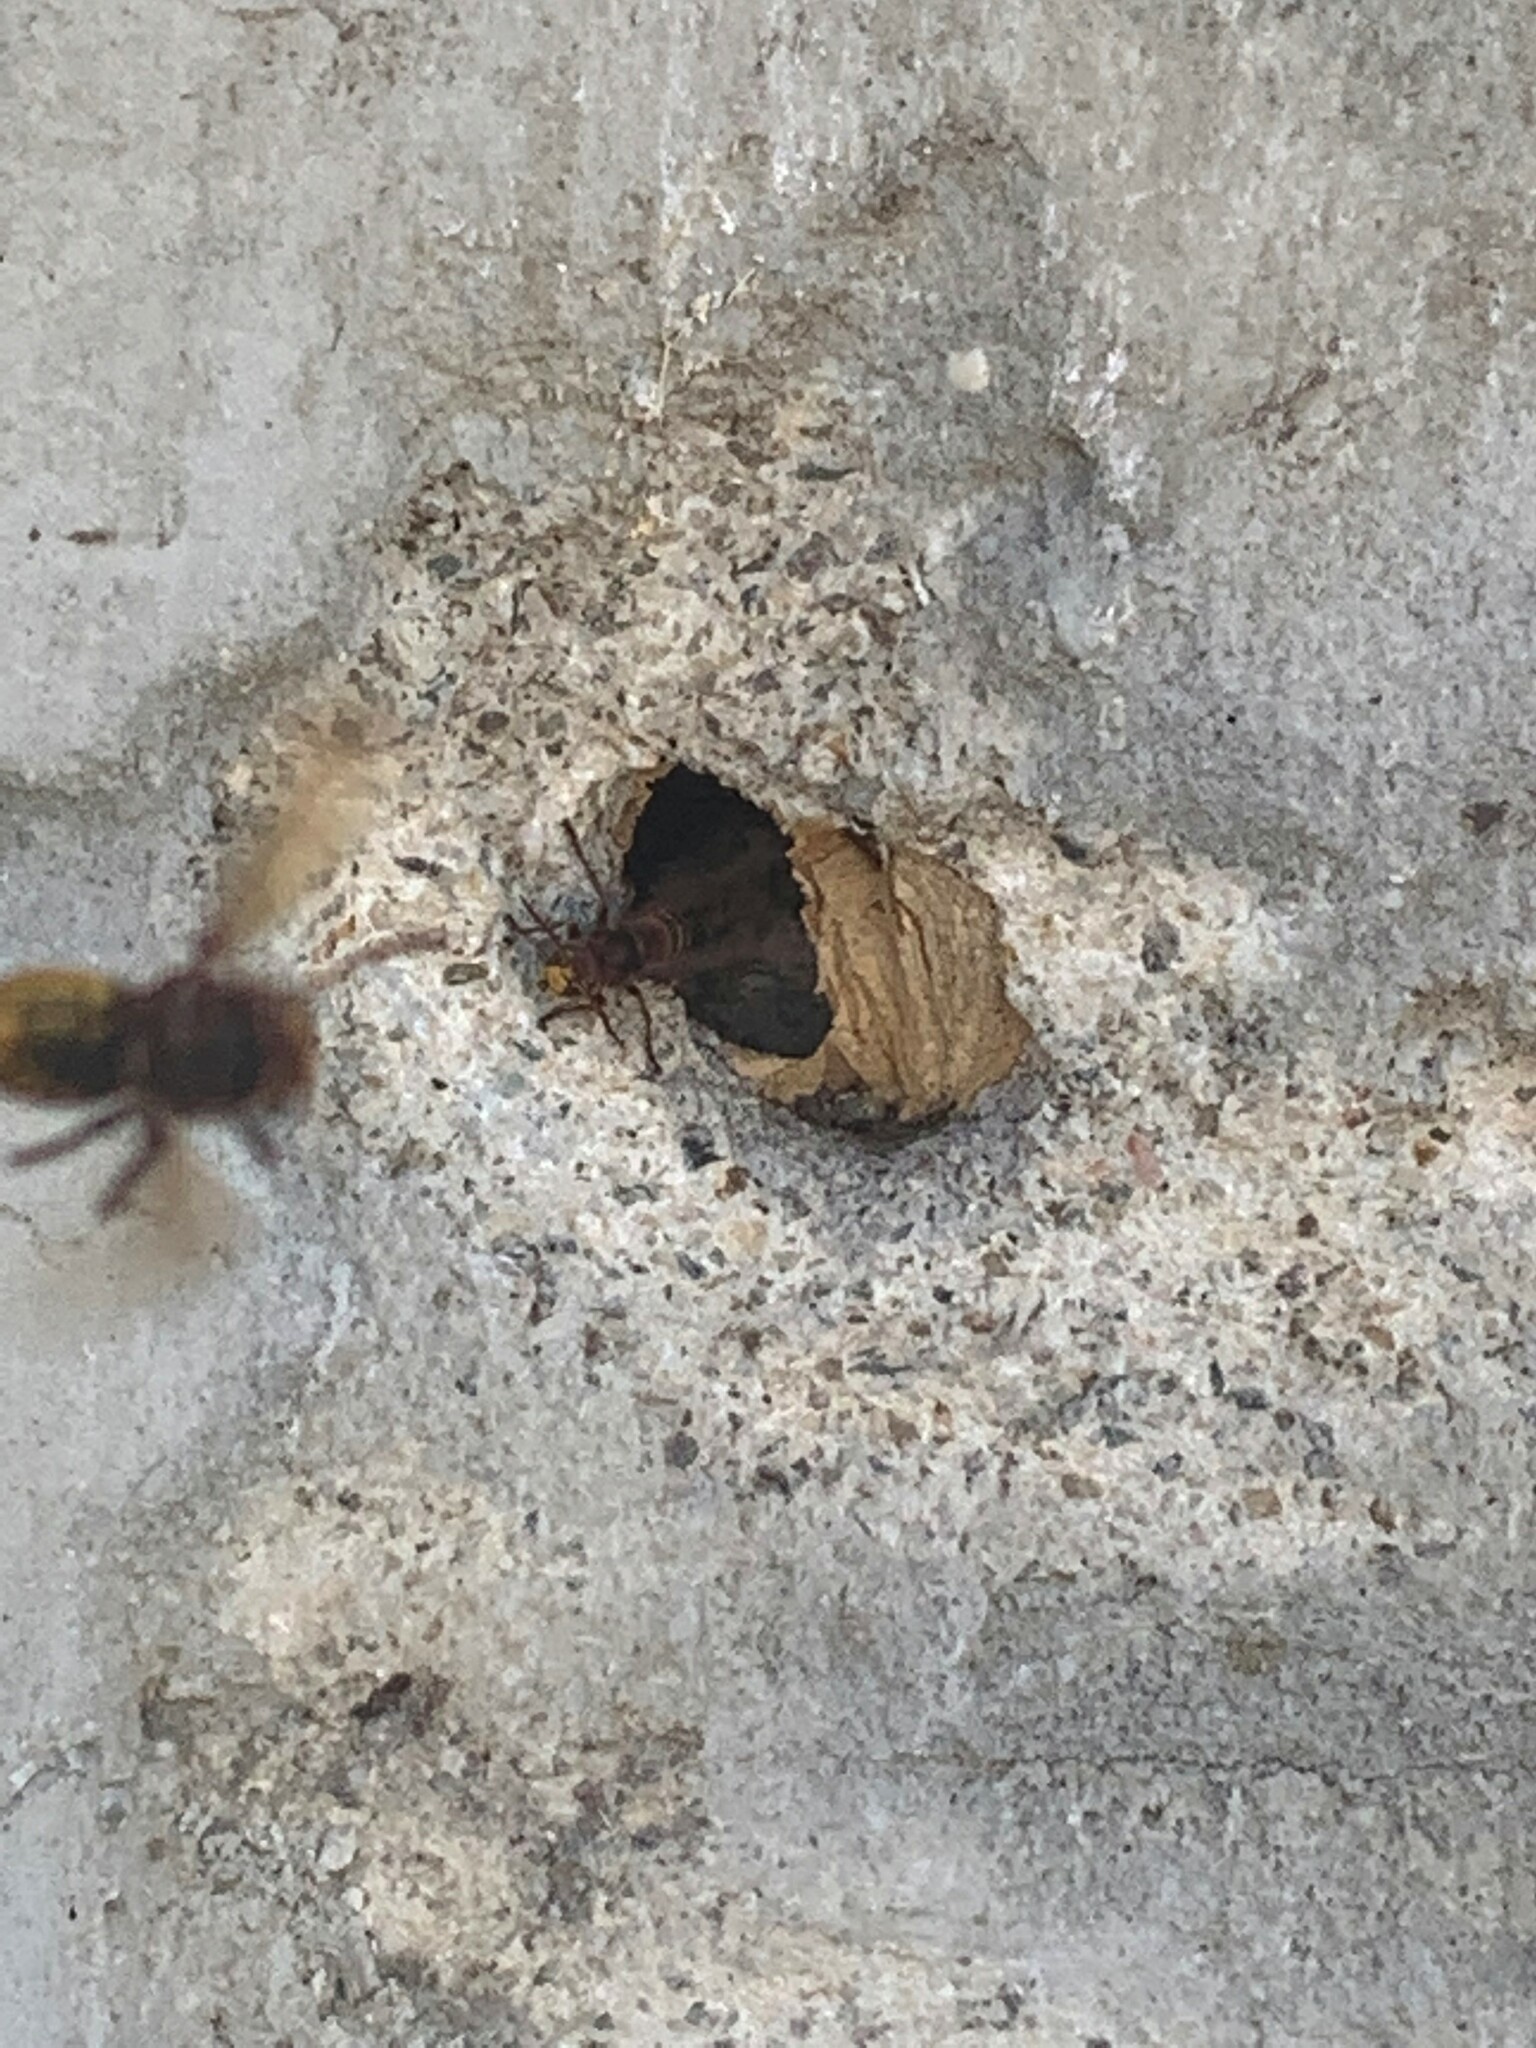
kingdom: Animalia
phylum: Arthropoda
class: Insecta
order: Hymenoptera
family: Vespidae
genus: Vespa
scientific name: Vespa crabro
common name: Hornet
